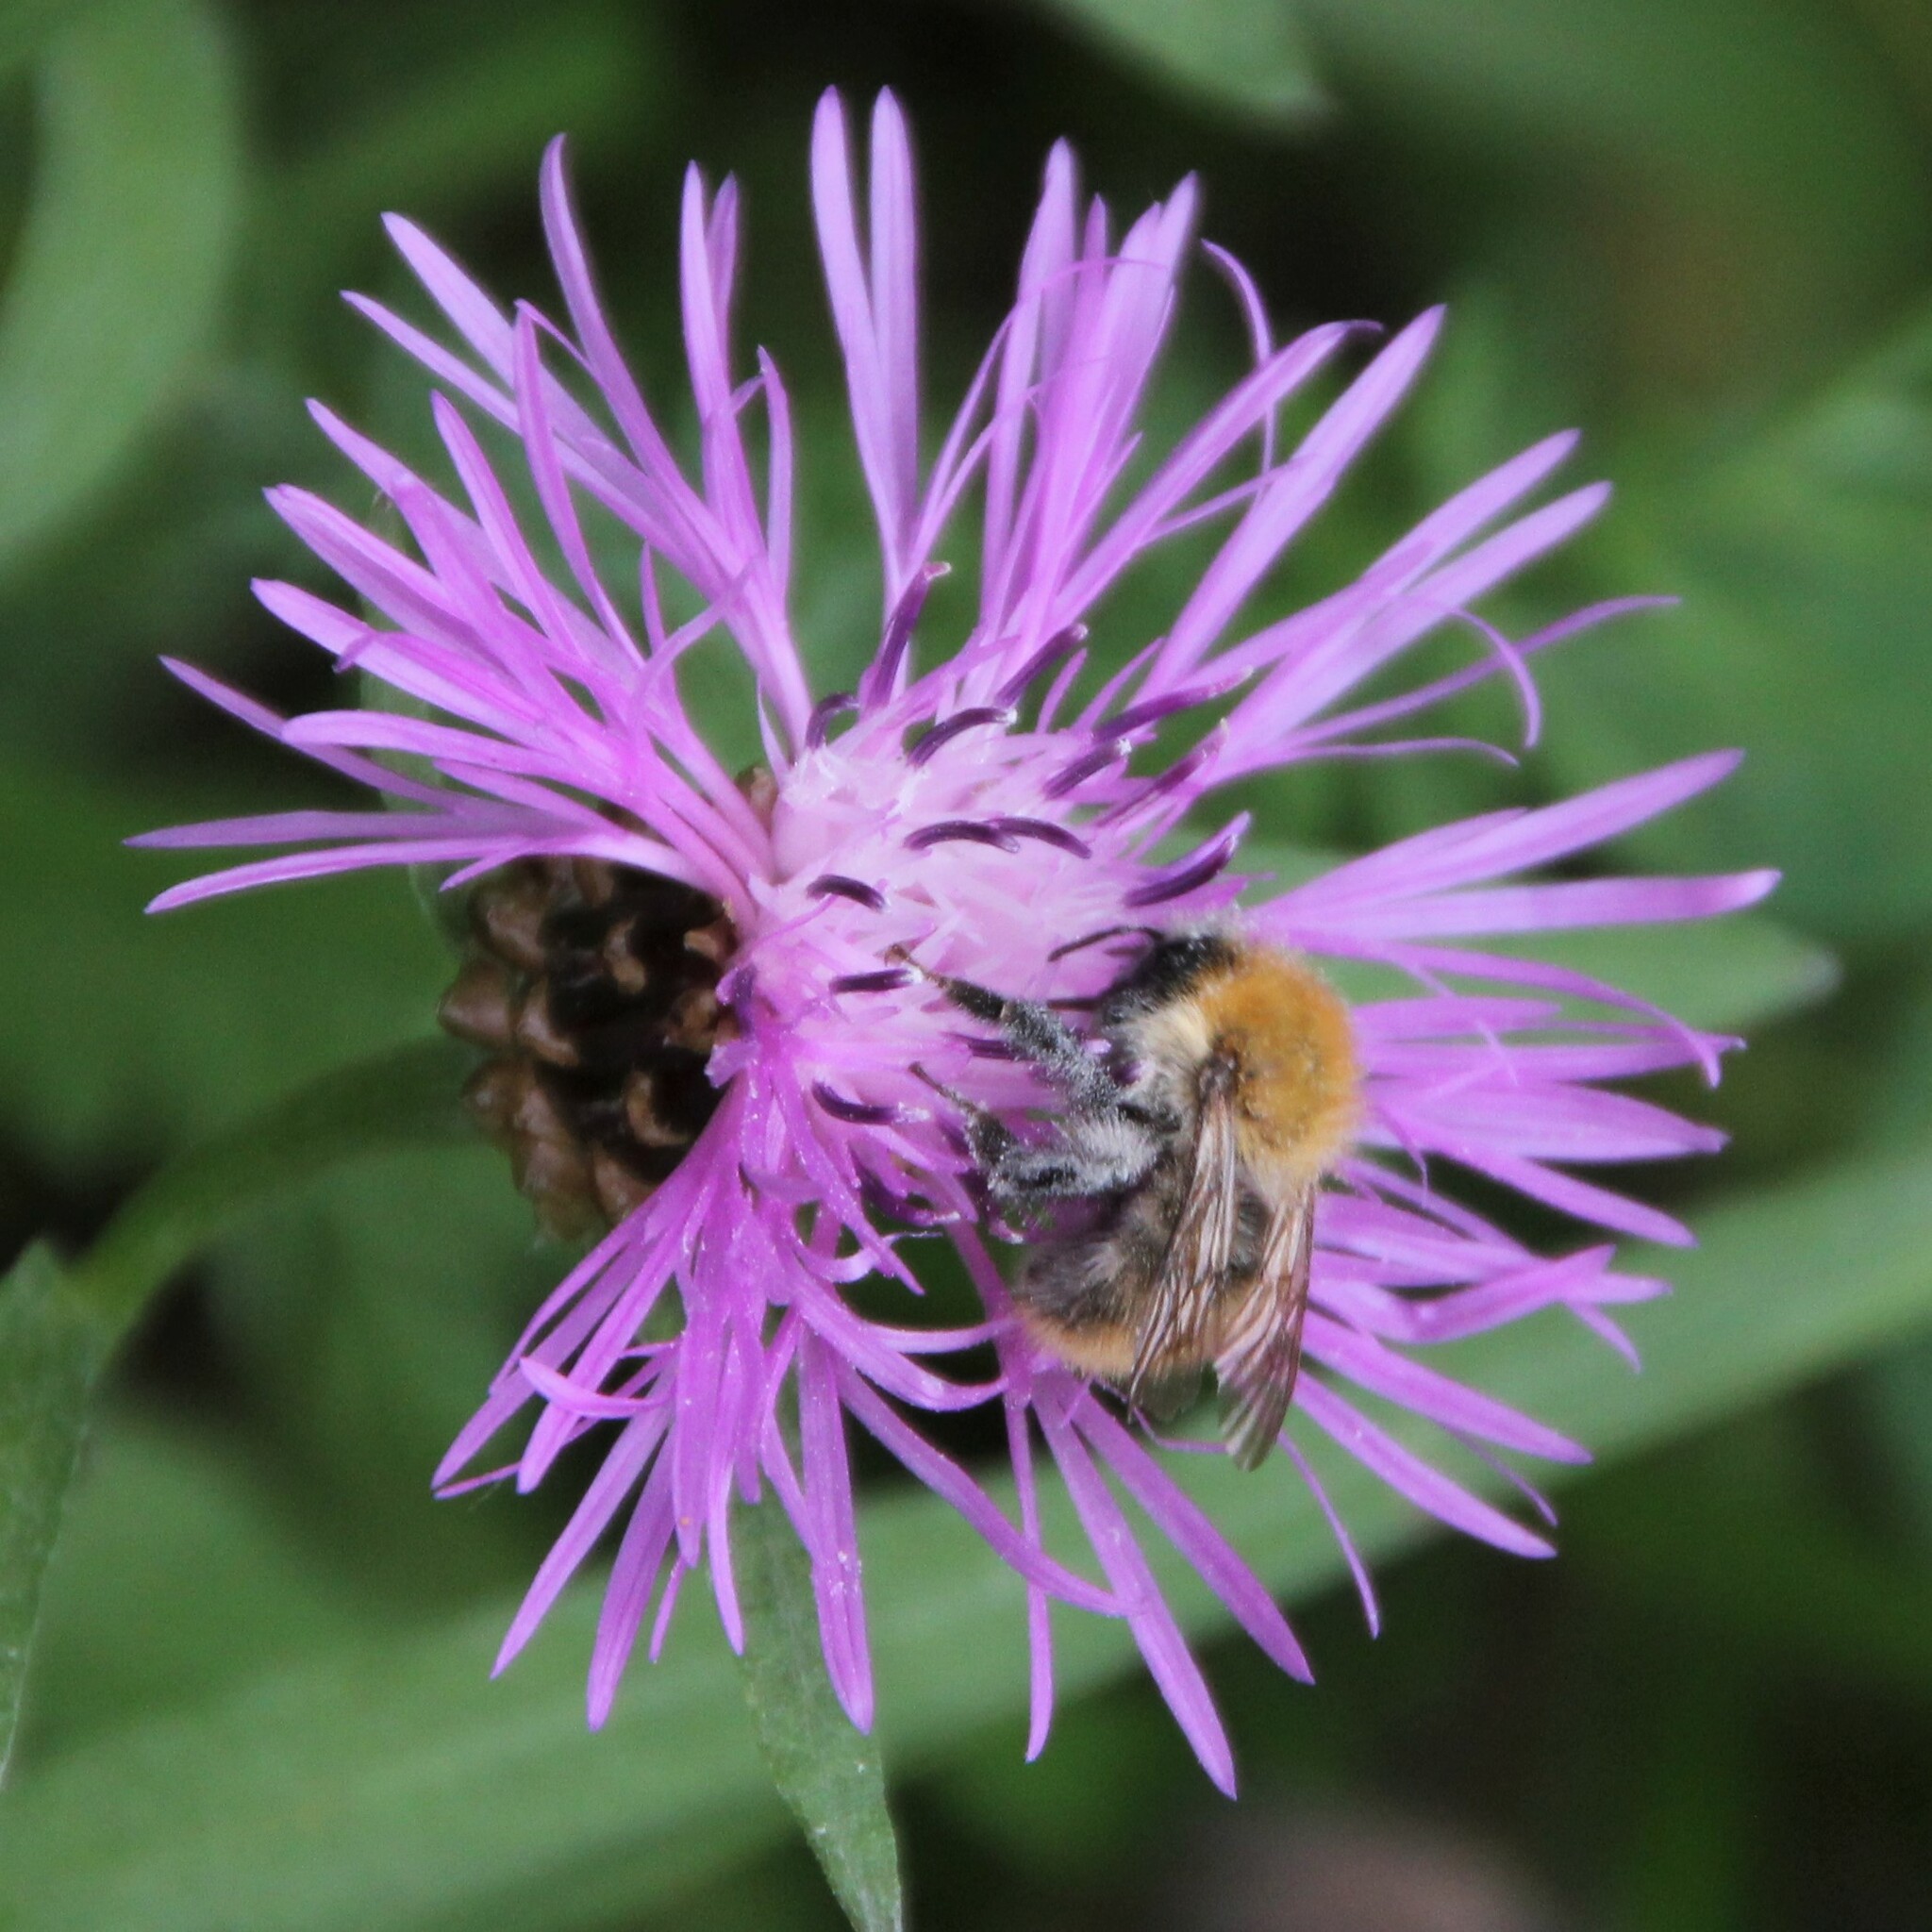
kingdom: Animalia
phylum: Arthropoda
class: Insecta
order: Hymenoptera
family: Apidae
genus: Bombus
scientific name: Bombus pascuorum
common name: Common carder bee
